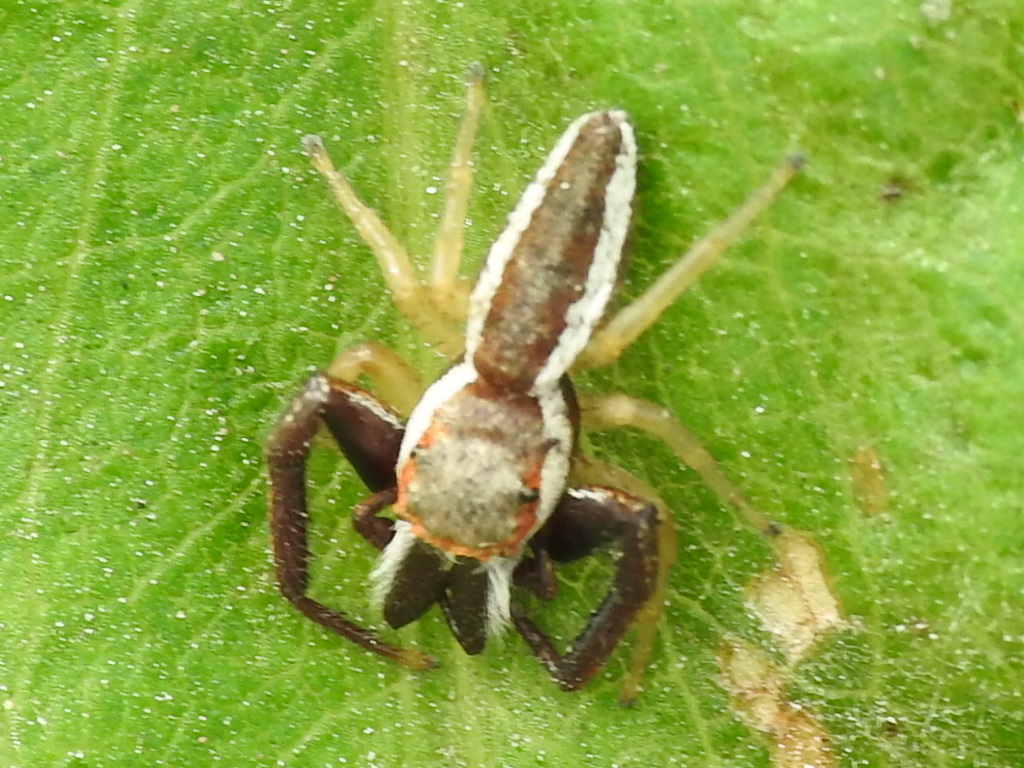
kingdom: Animalia
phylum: Arthropoda
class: Arachnida
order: Araneae
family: Salticidae
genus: Hentzia
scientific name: Hentzia palmarum
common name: Common hentz jumping spider
